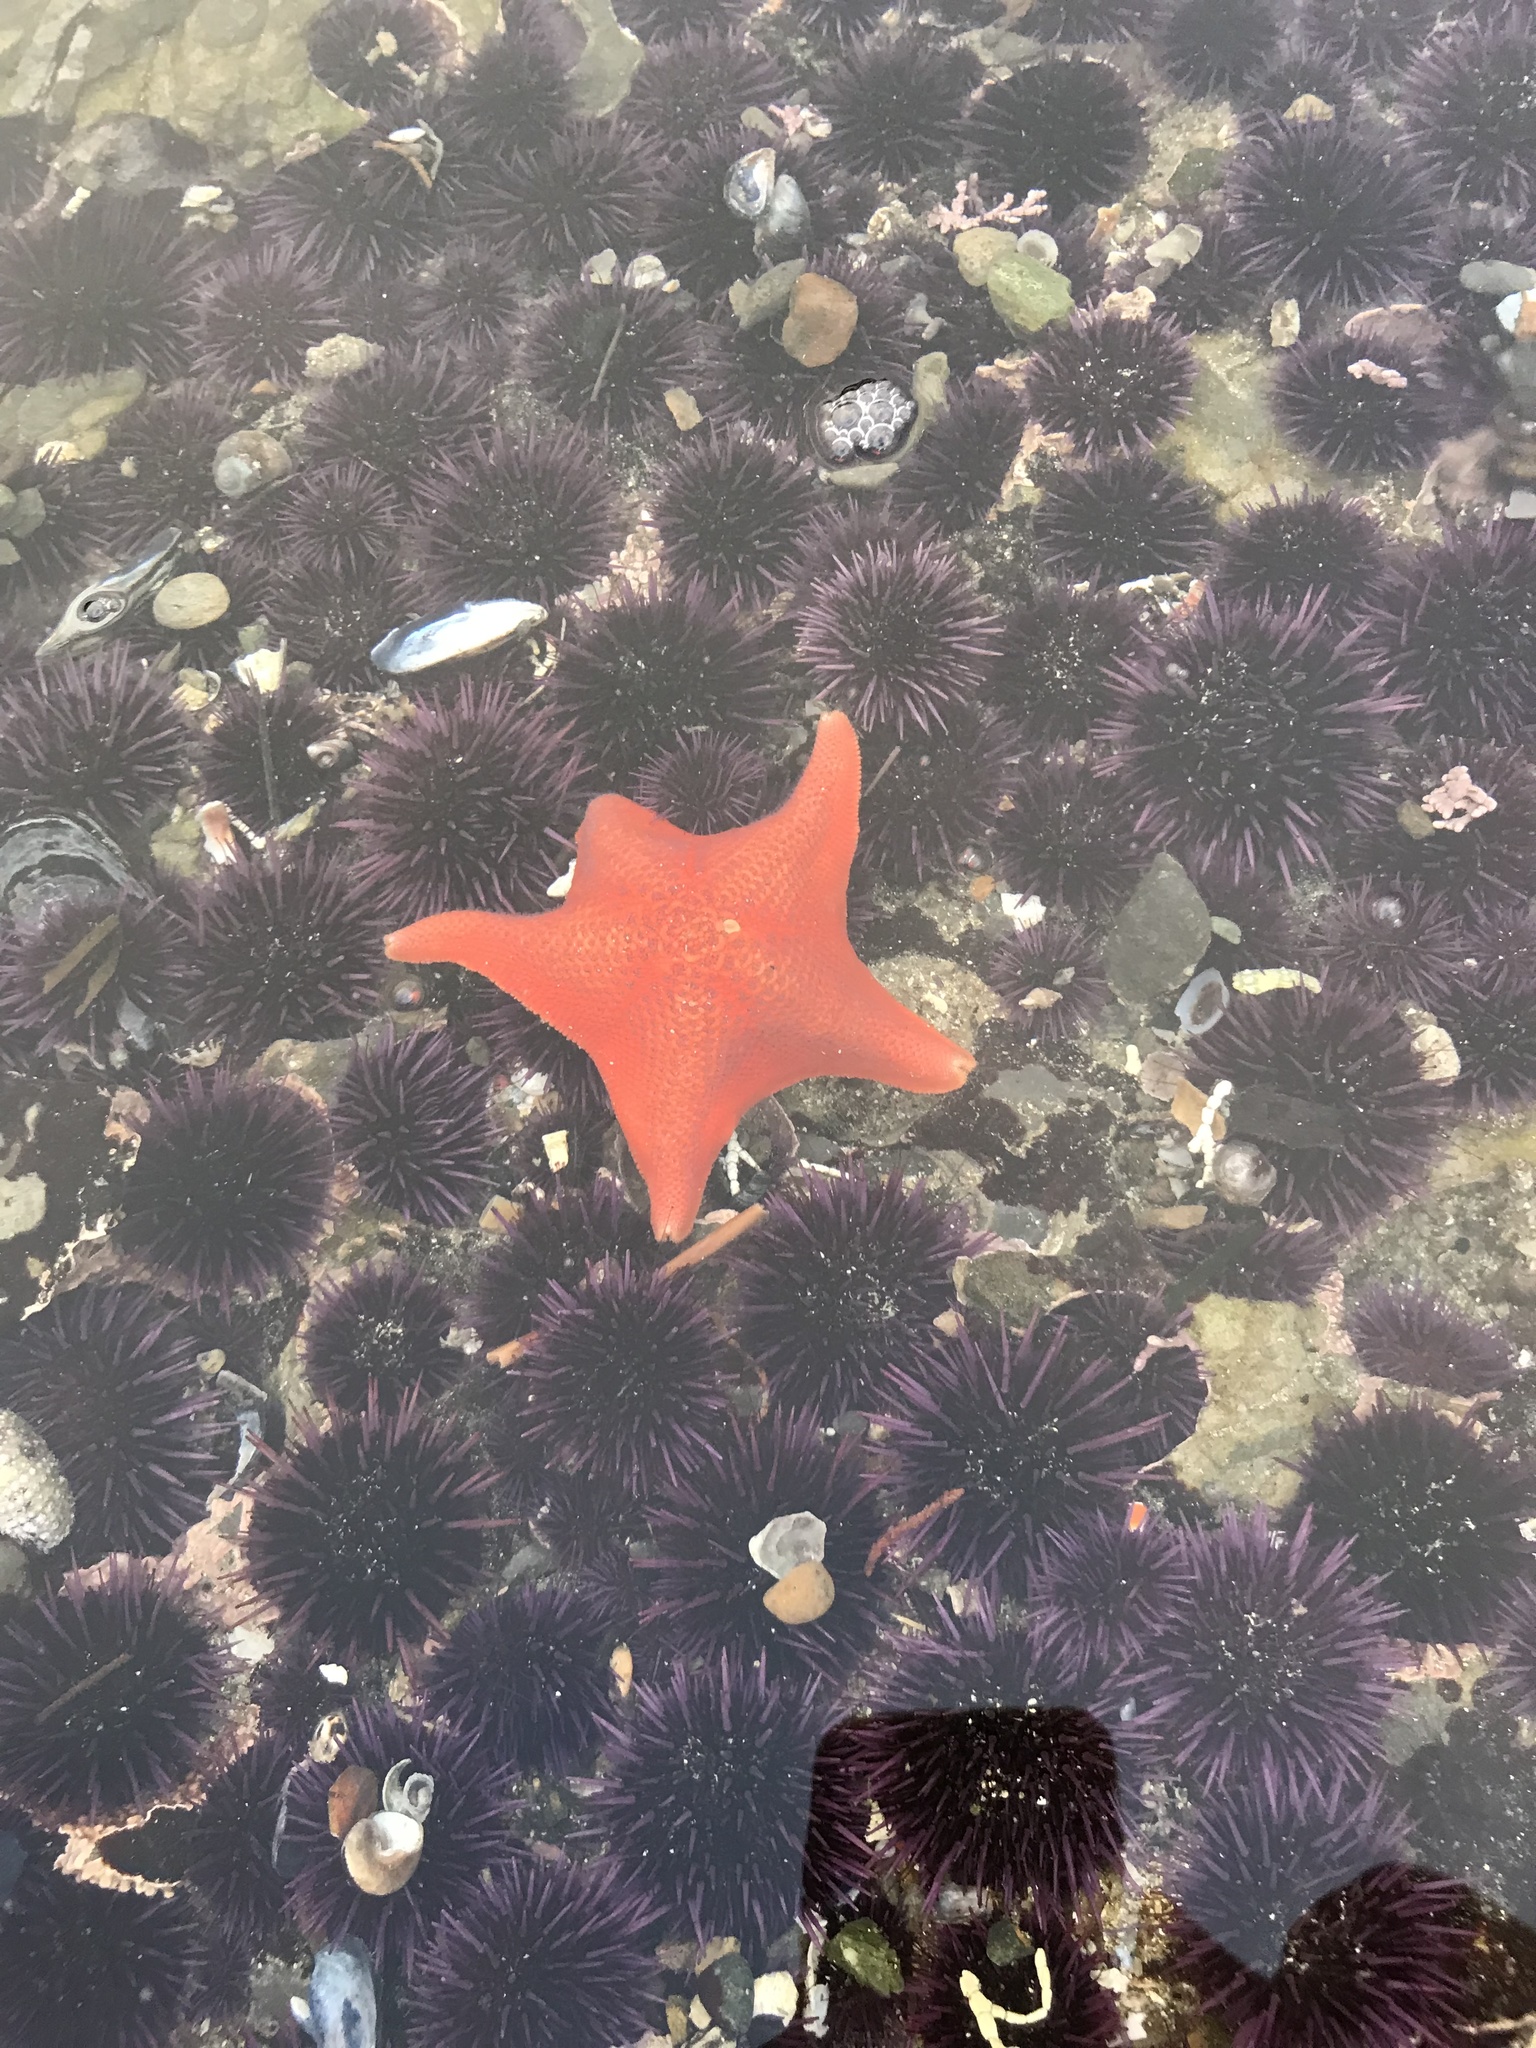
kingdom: Animalia
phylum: Echinodermata
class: Asteroidea
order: Valvatida
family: Asterinidae
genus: Patiria
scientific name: Patiria miniata
